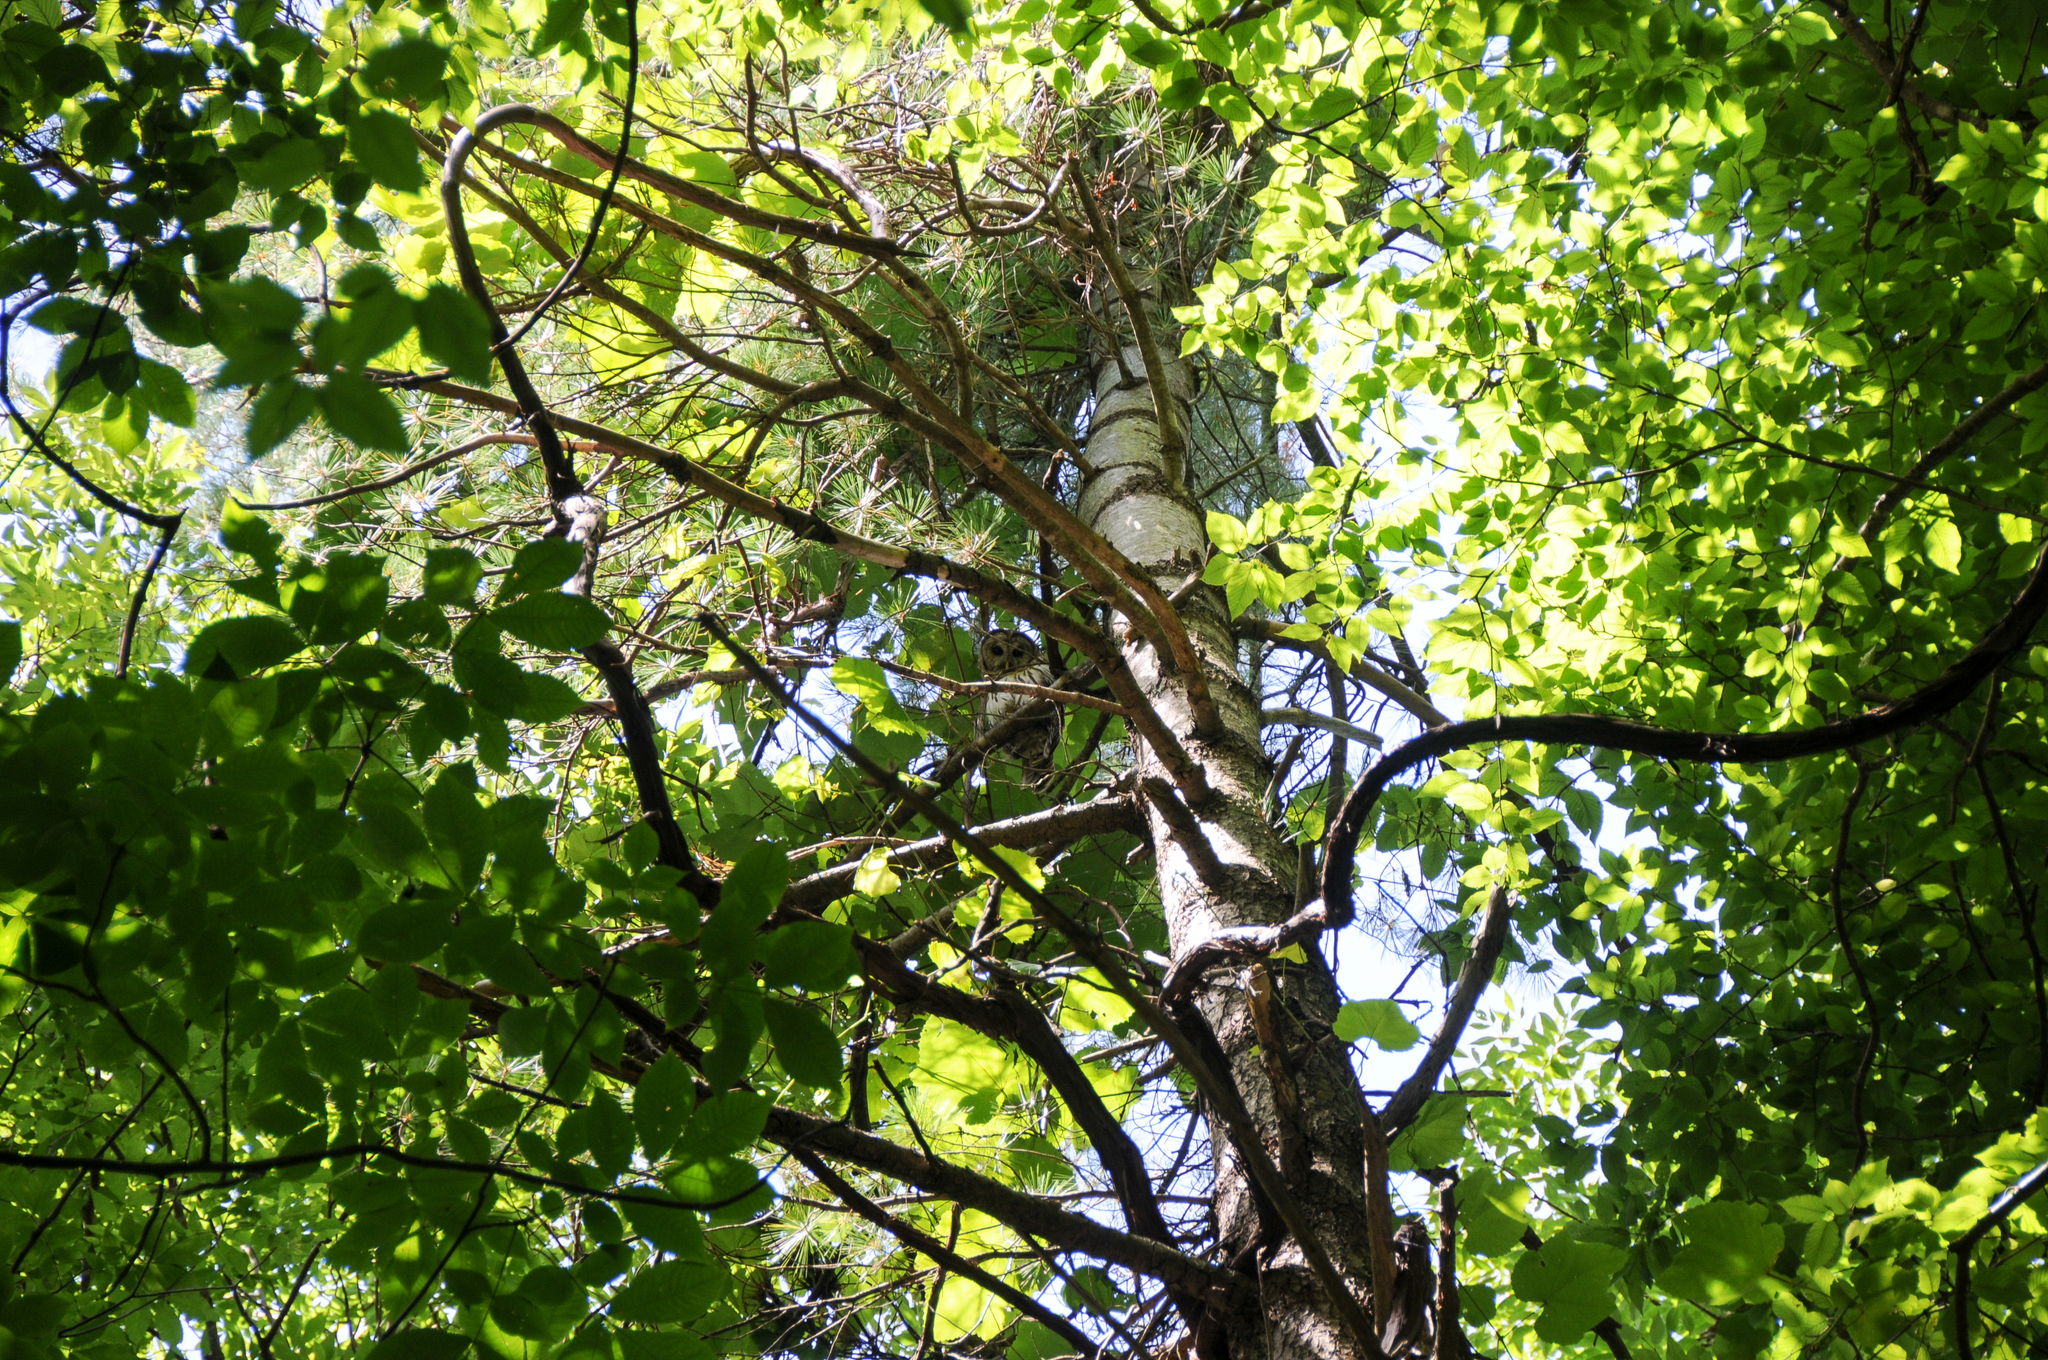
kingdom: Animalia
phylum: Chordata
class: Aves
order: Strigiformes
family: Strigidae
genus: Strix
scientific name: Strix varia
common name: Barred owl
